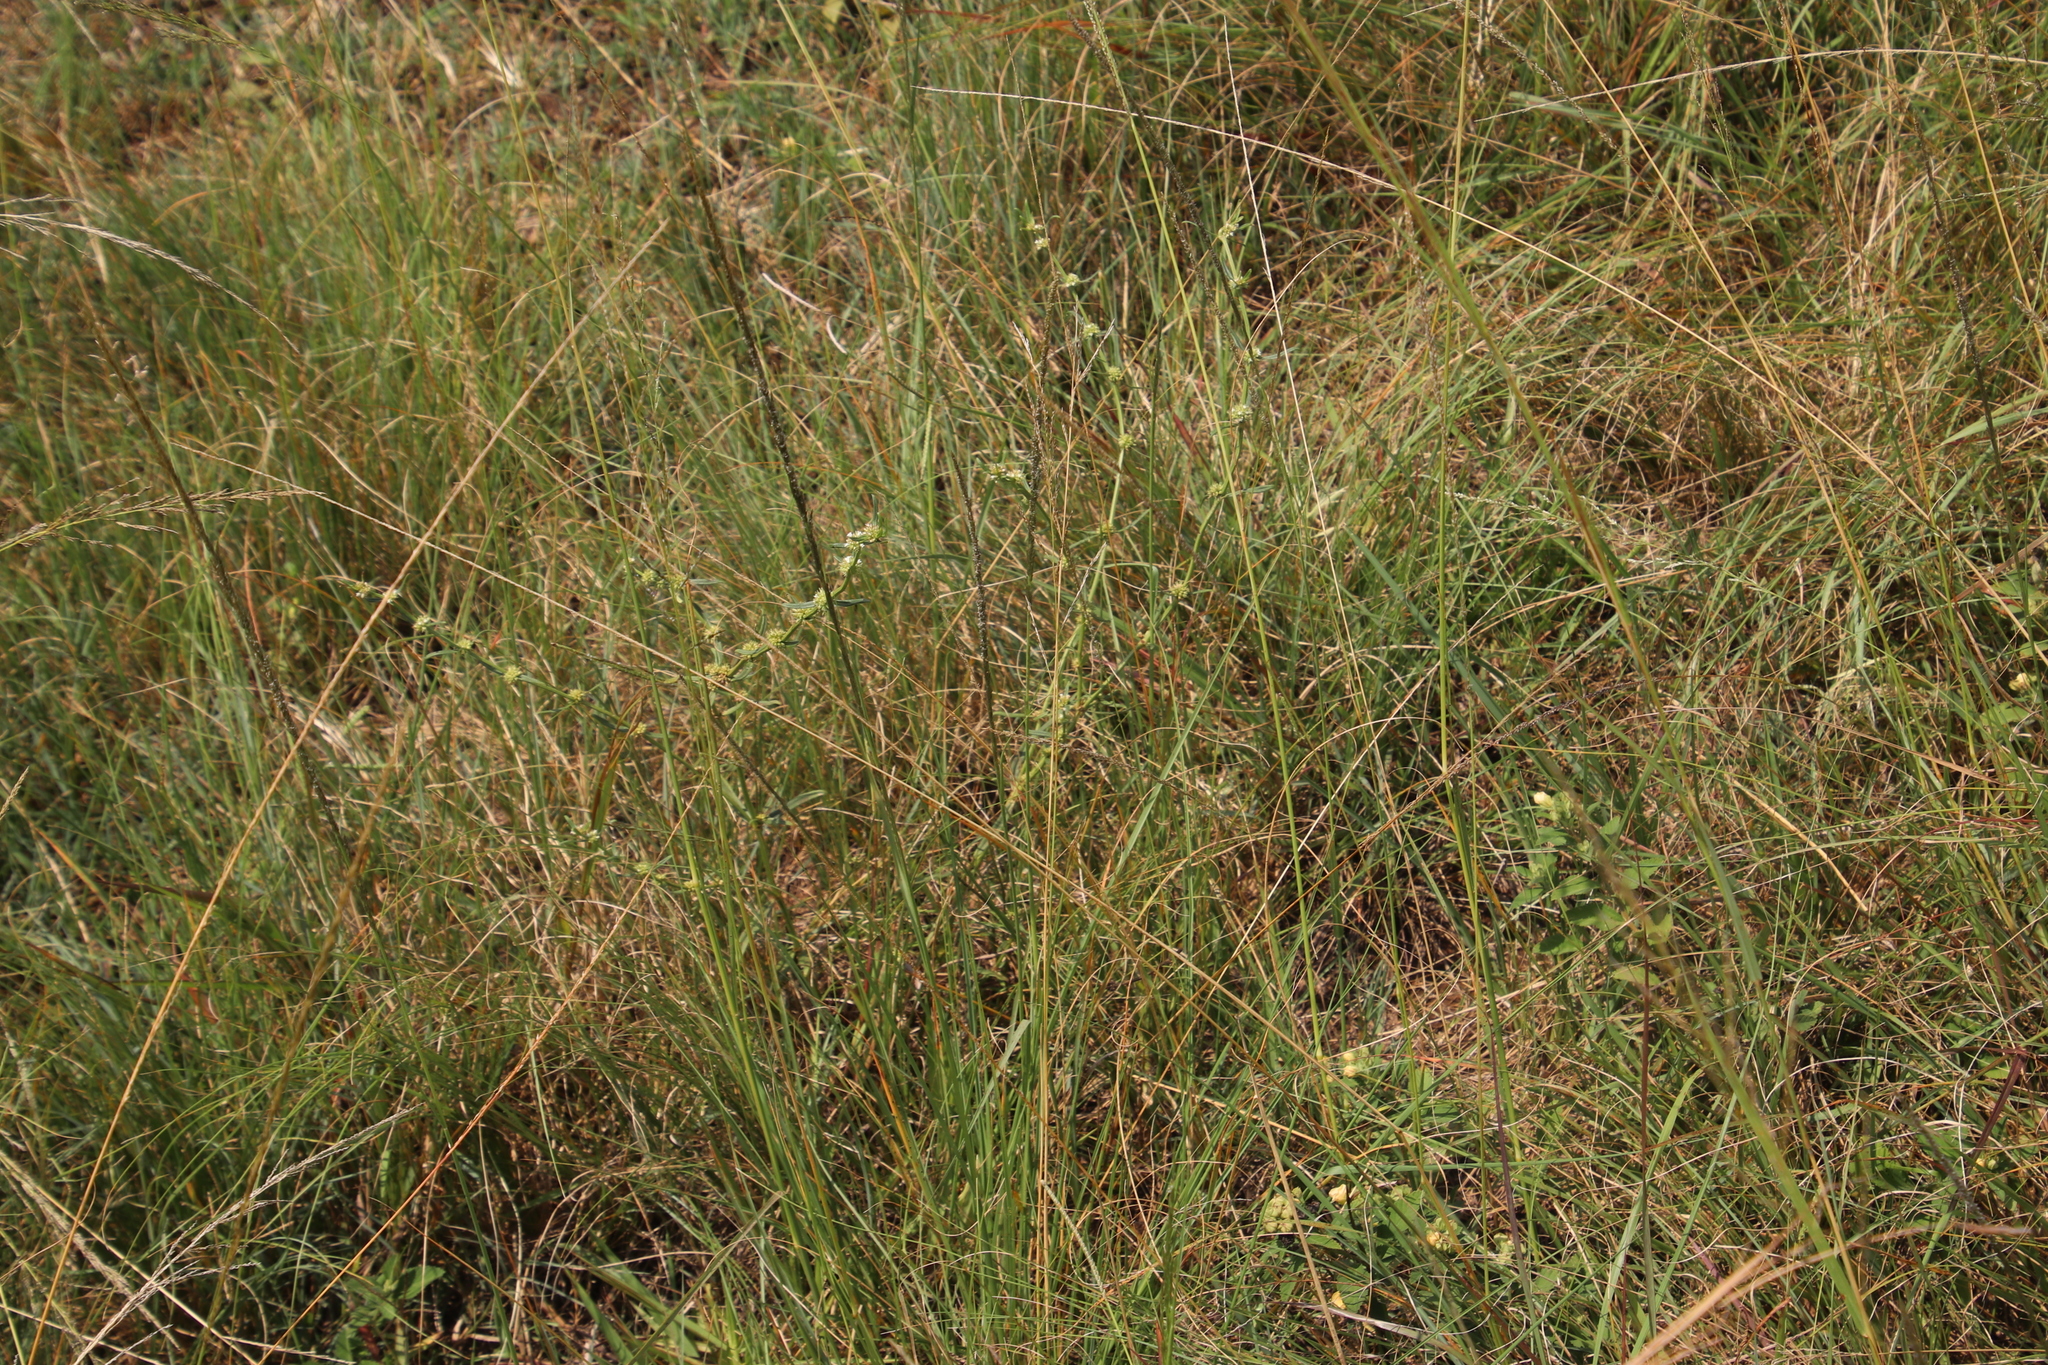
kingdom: Plantae
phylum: Tracheophyta
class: Magnoliopsida
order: Gentianales
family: Rubiaceae
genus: Spermacoce
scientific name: Spermacoce natalensis
